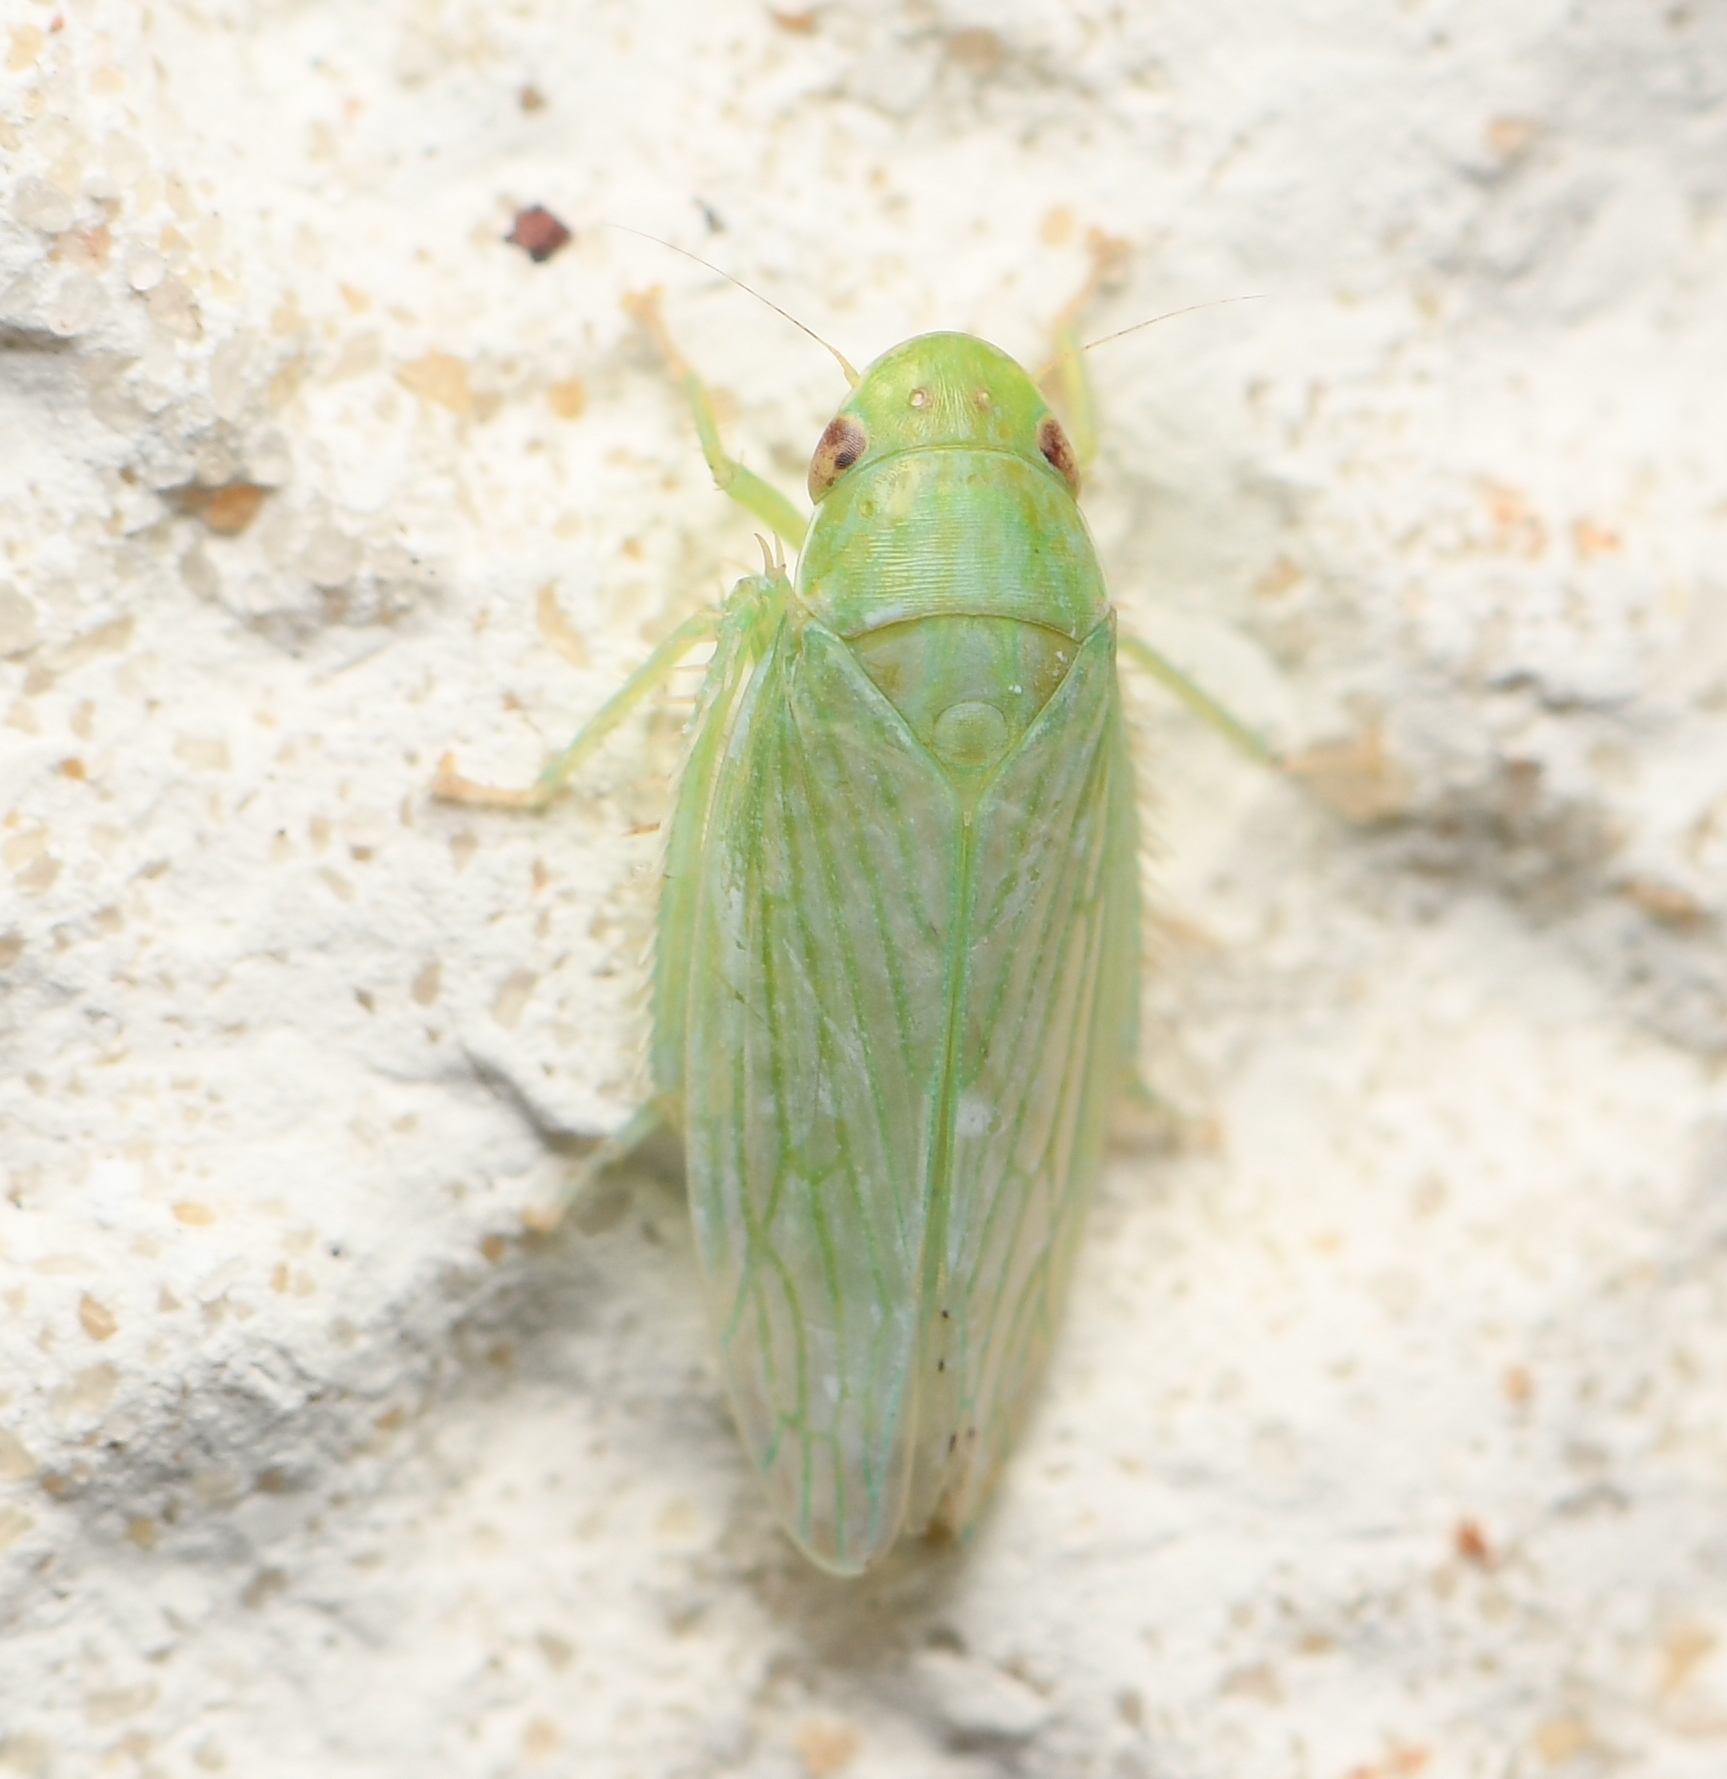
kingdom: Animalia
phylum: Arthropoda
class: Insecta
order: Hemiptera
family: Cicadellidae
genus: Gyponana
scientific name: Gyponana tenella
